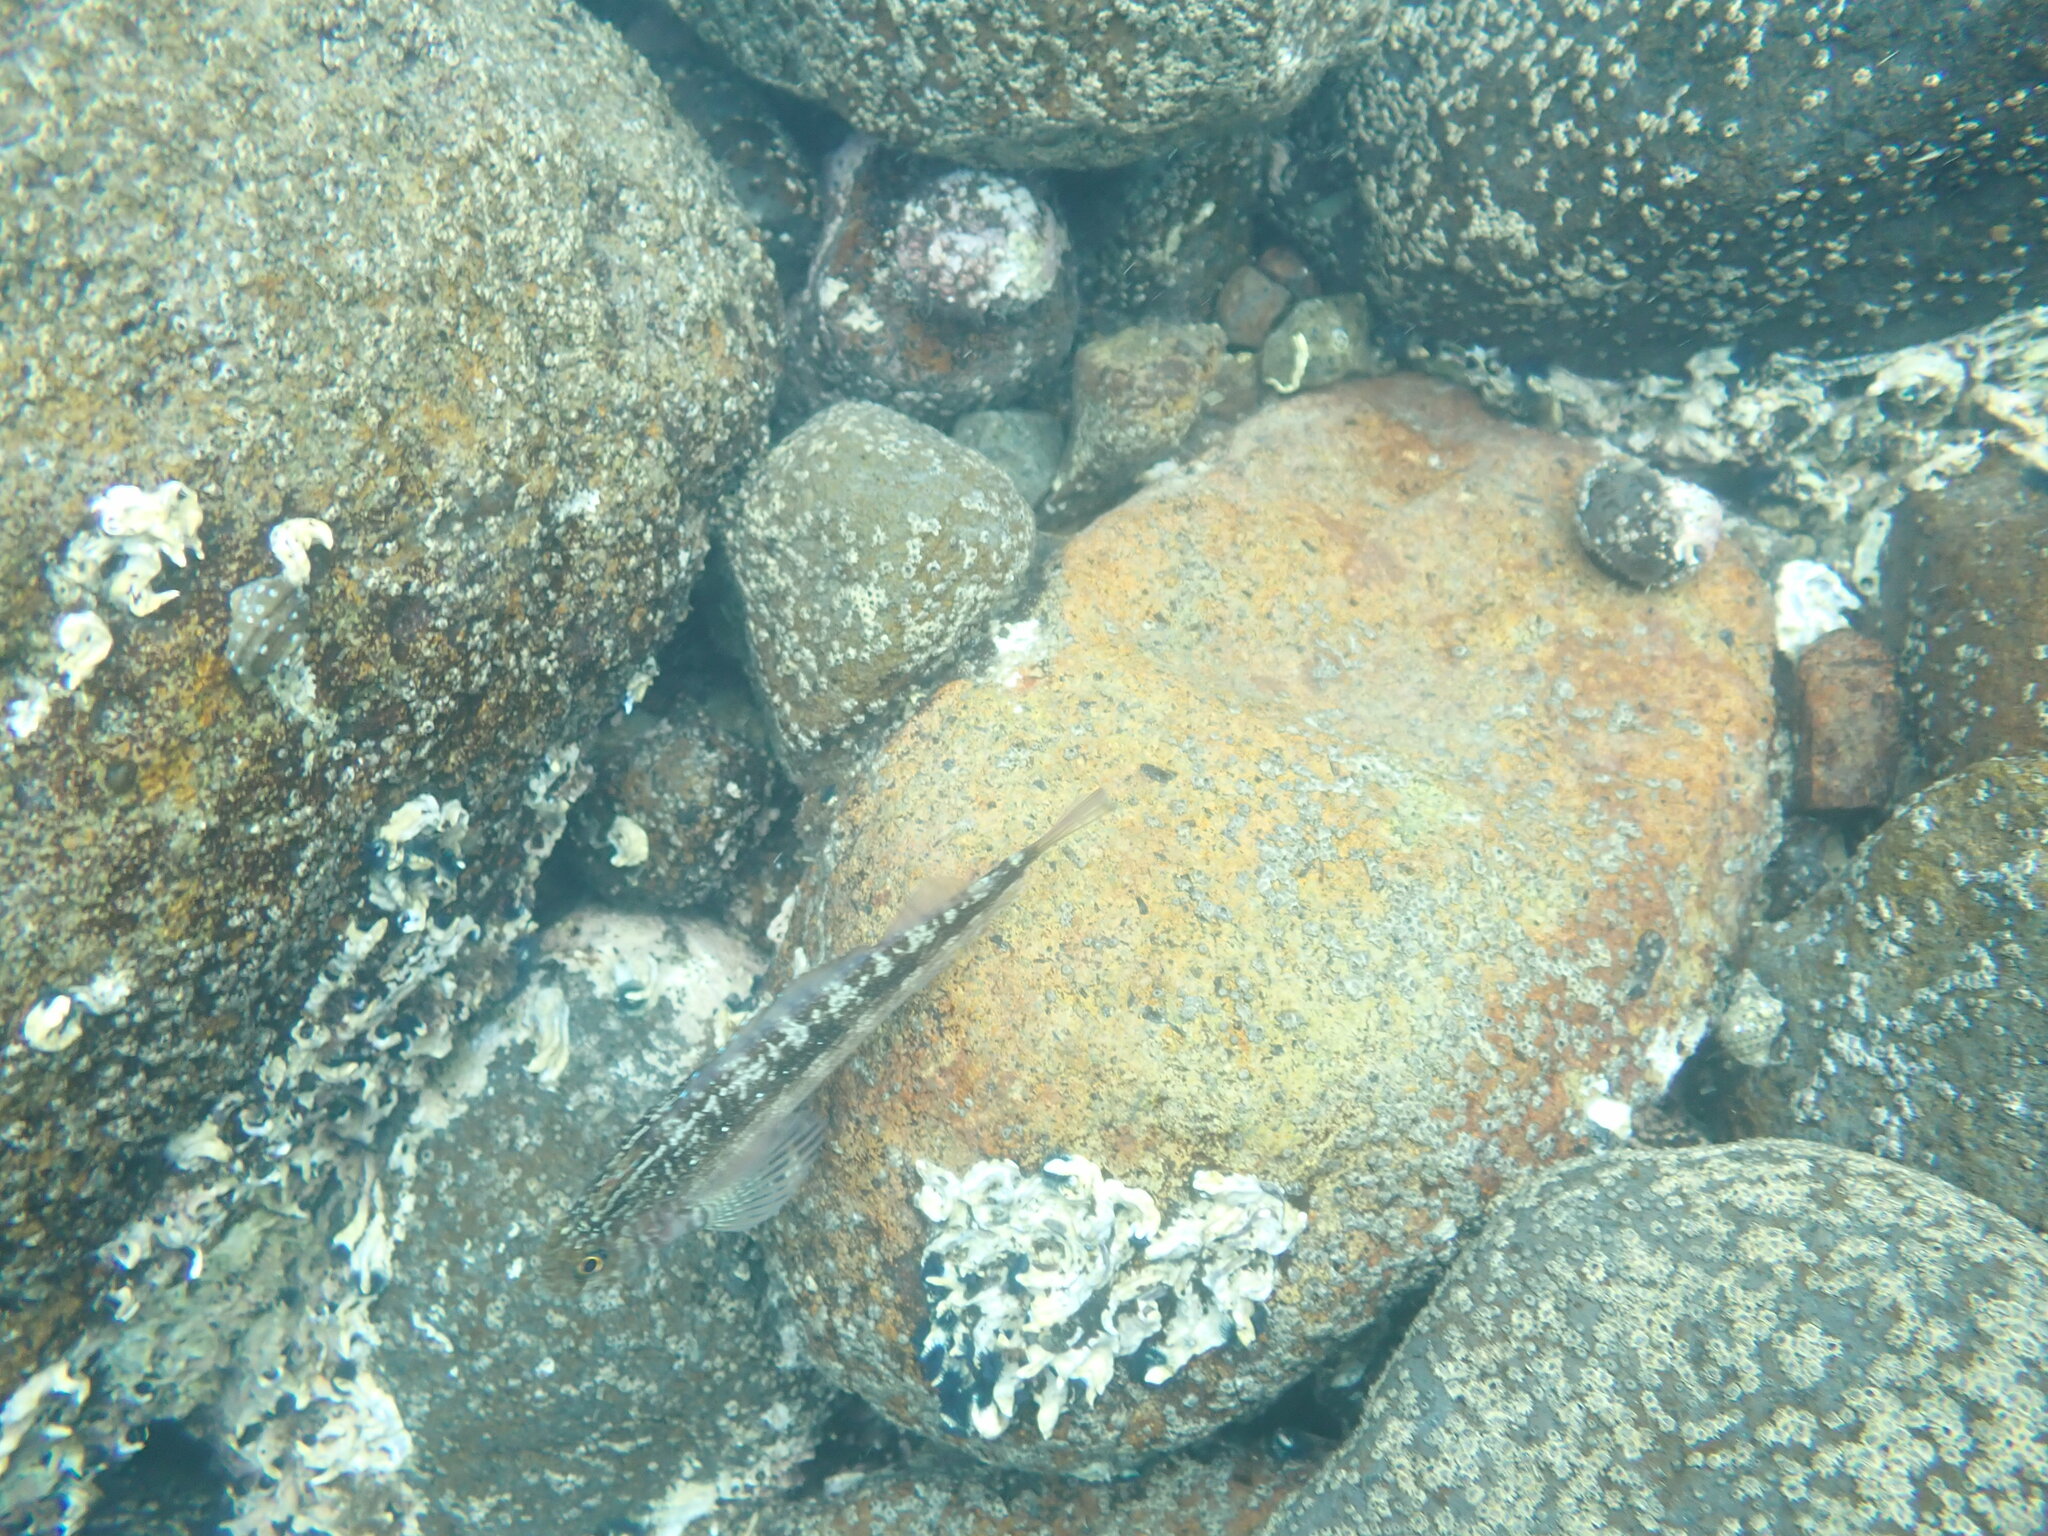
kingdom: Animalia
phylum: Chordata
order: Perciformes
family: Tripterygiidae
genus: Forsterygion
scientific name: Forsterygion varium
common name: Variable triplefin
